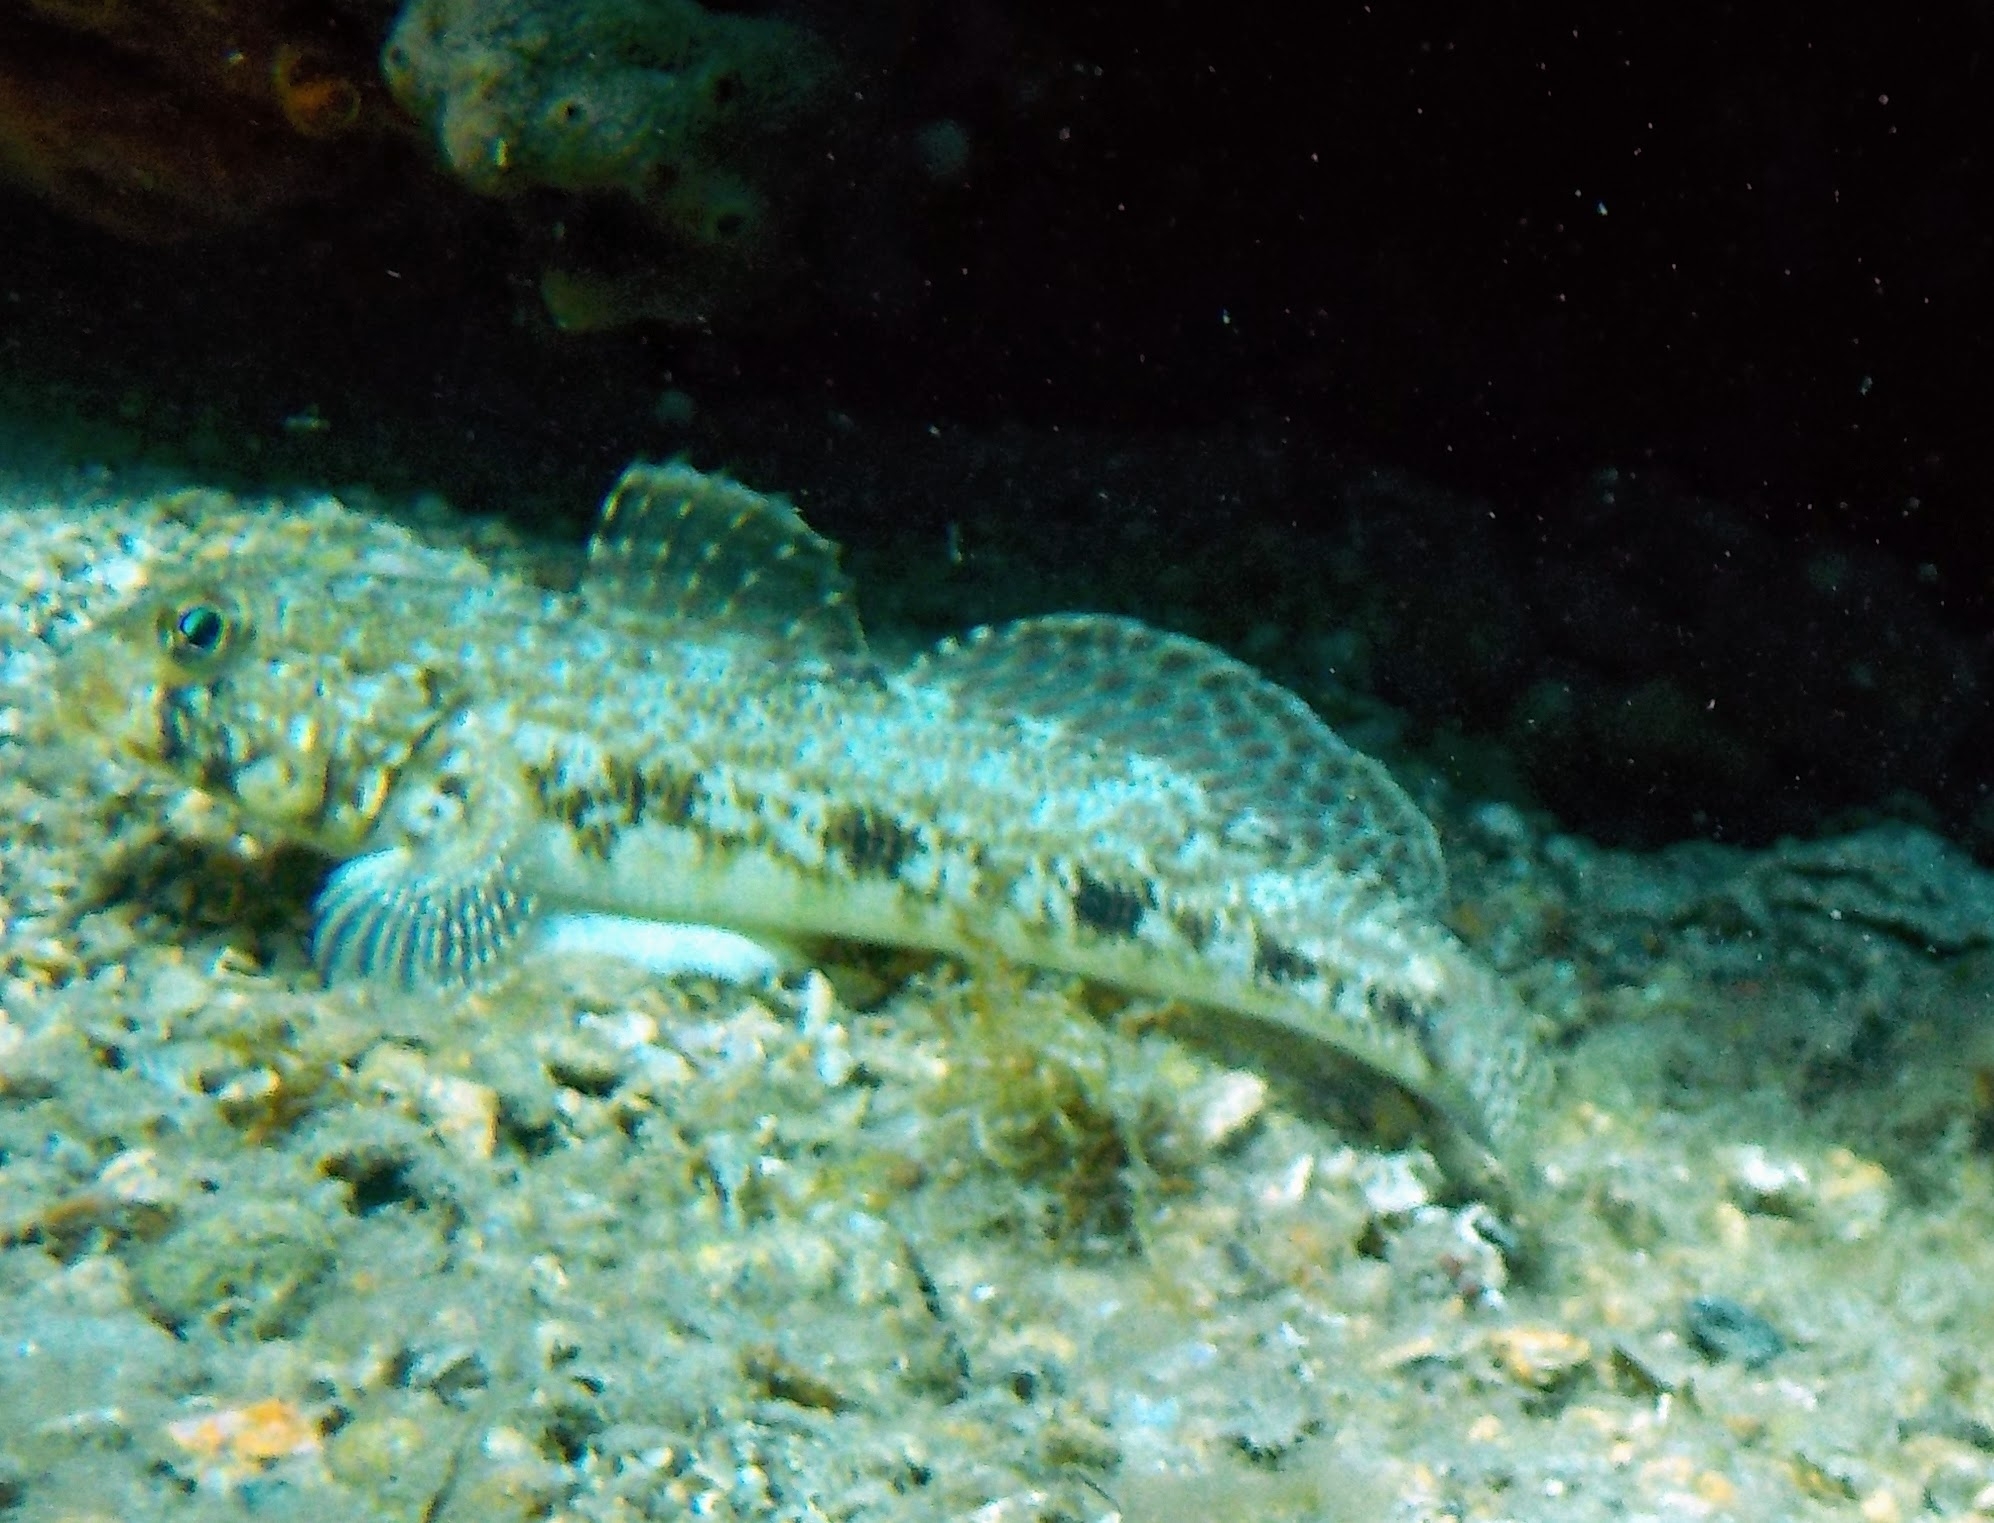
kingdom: Animalia
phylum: Chordata
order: Perciformes
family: Gobiidae
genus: Gobius
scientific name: Gobius geniporus
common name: Slender goby
